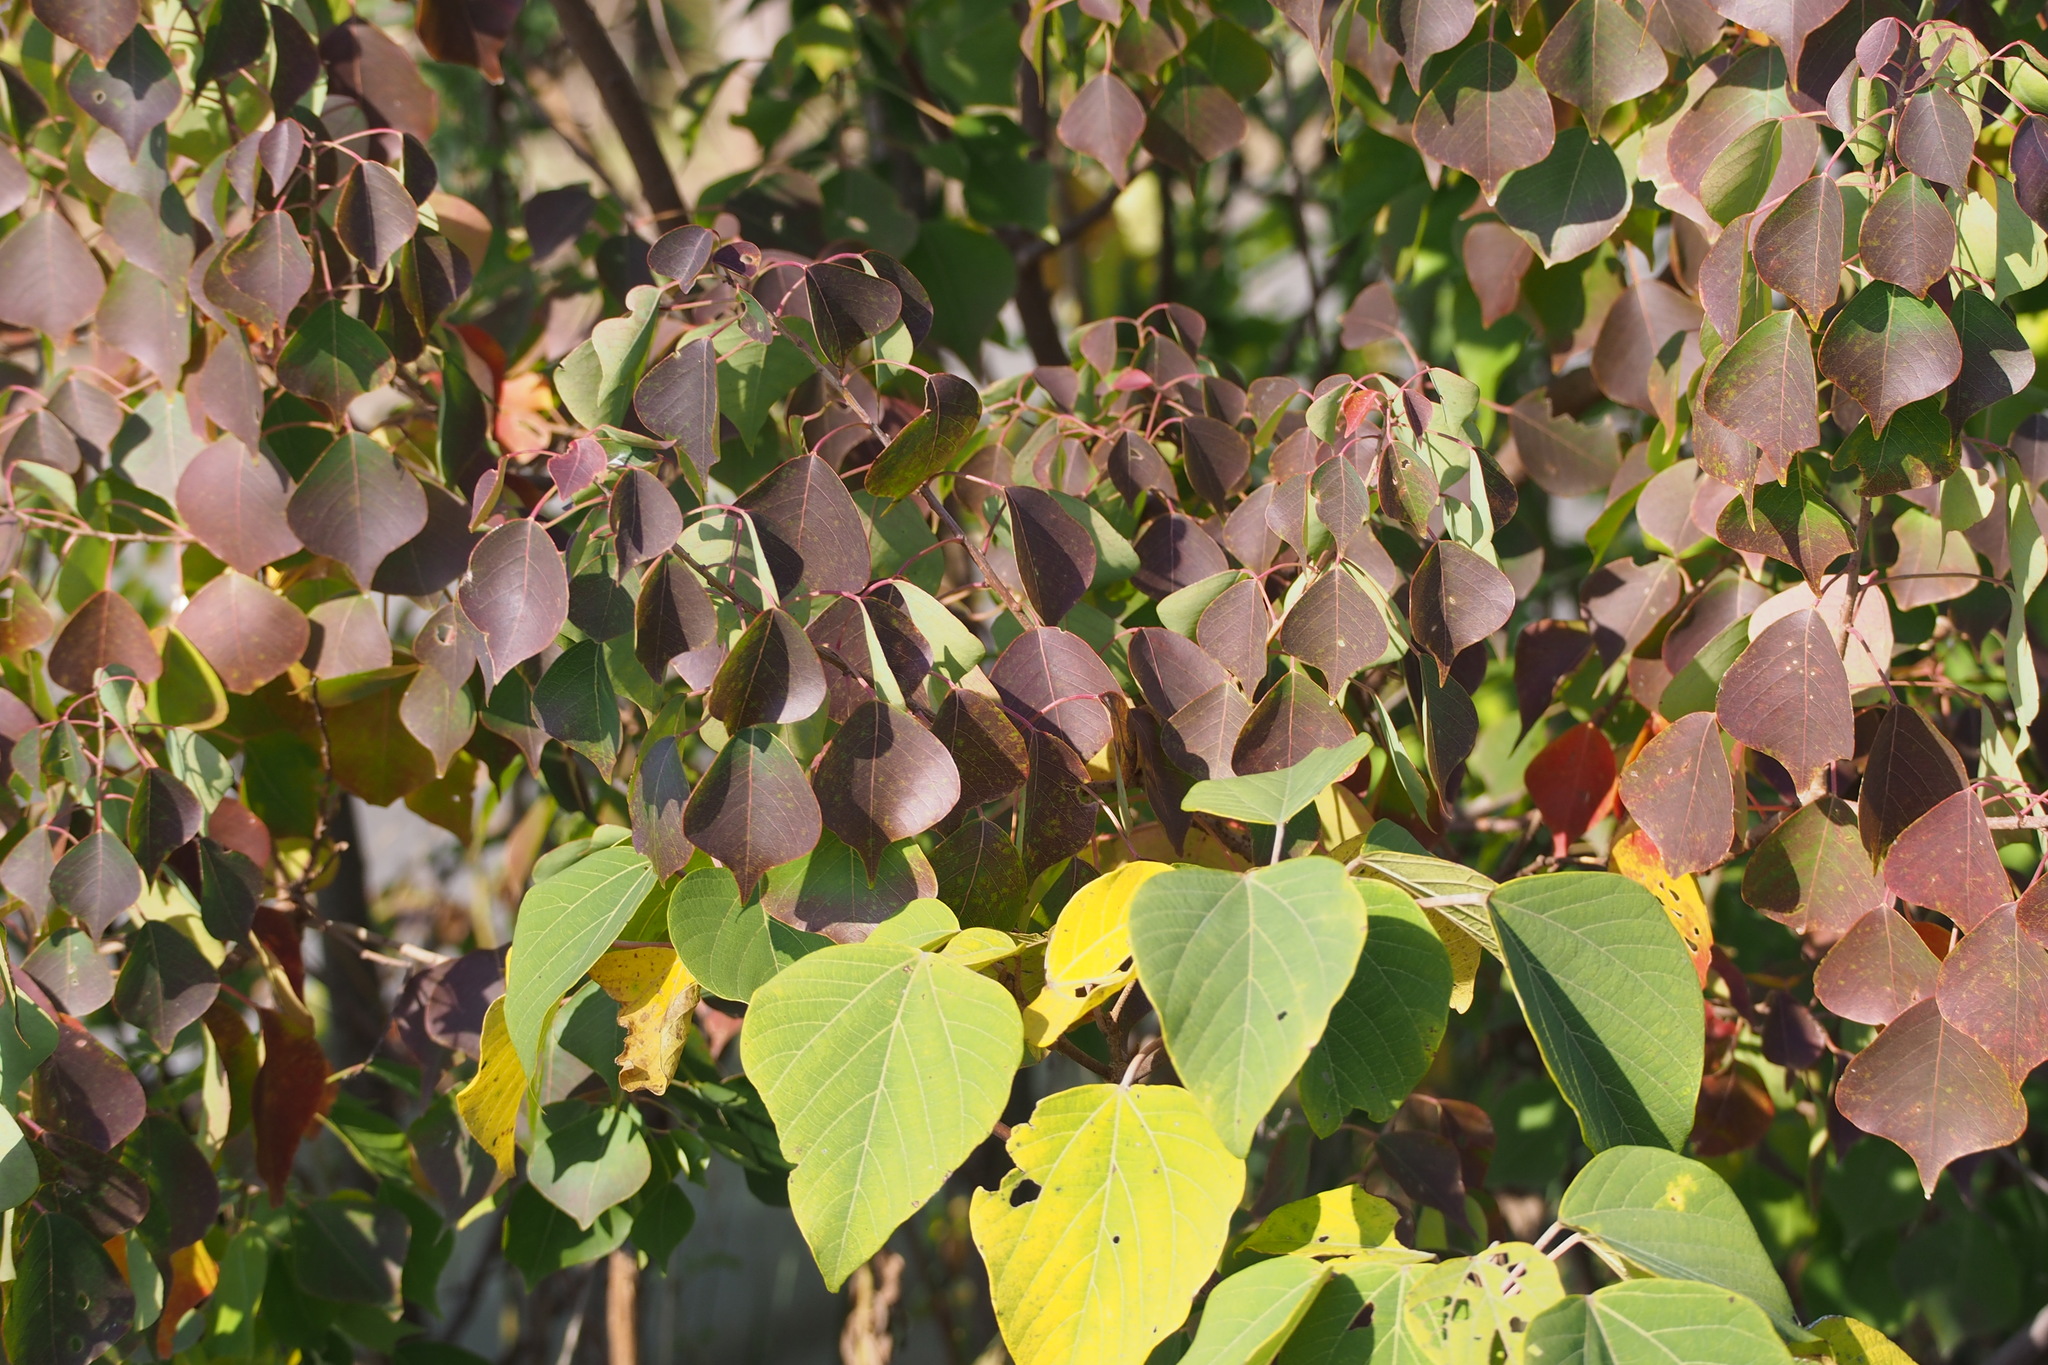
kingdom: Plantae
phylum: Tracheophyta
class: Magnoliopsida
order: Malpighiales
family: Euphorbiaceae
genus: Triadica
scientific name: Triadica sebifera
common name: Chinese tallow
